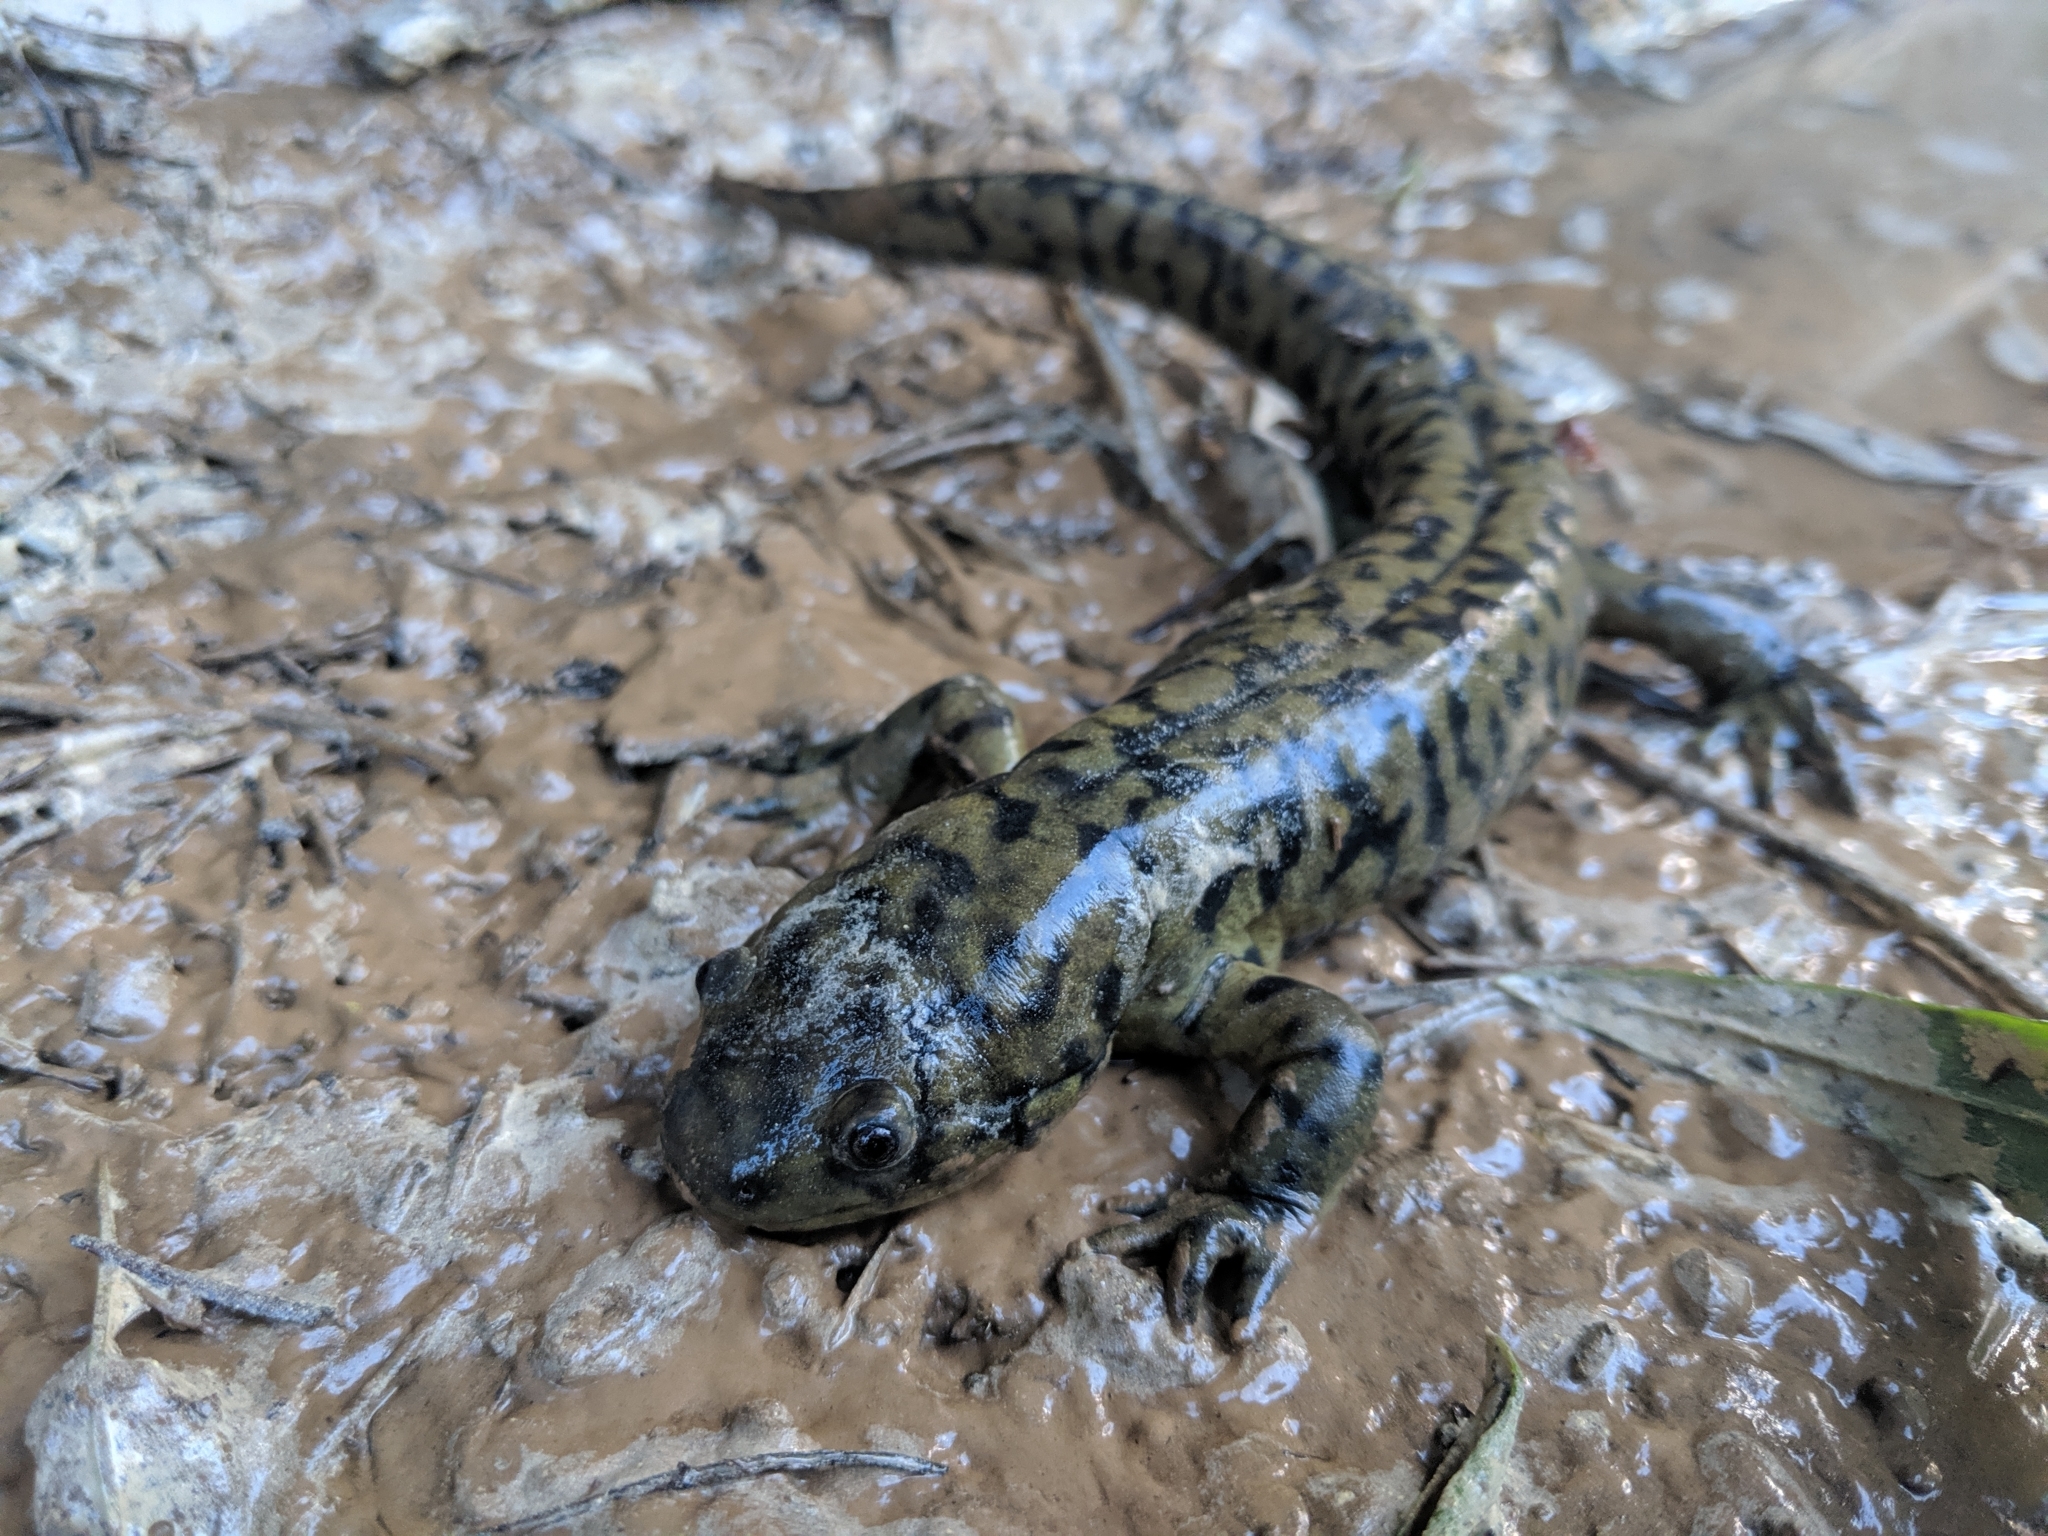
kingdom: Animalia
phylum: Chordata
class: Amphibia
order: Caudata
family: Ambystomatidae
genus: Ambystoma
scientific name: Ambystoma mavortium
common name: Western tiger salamander
